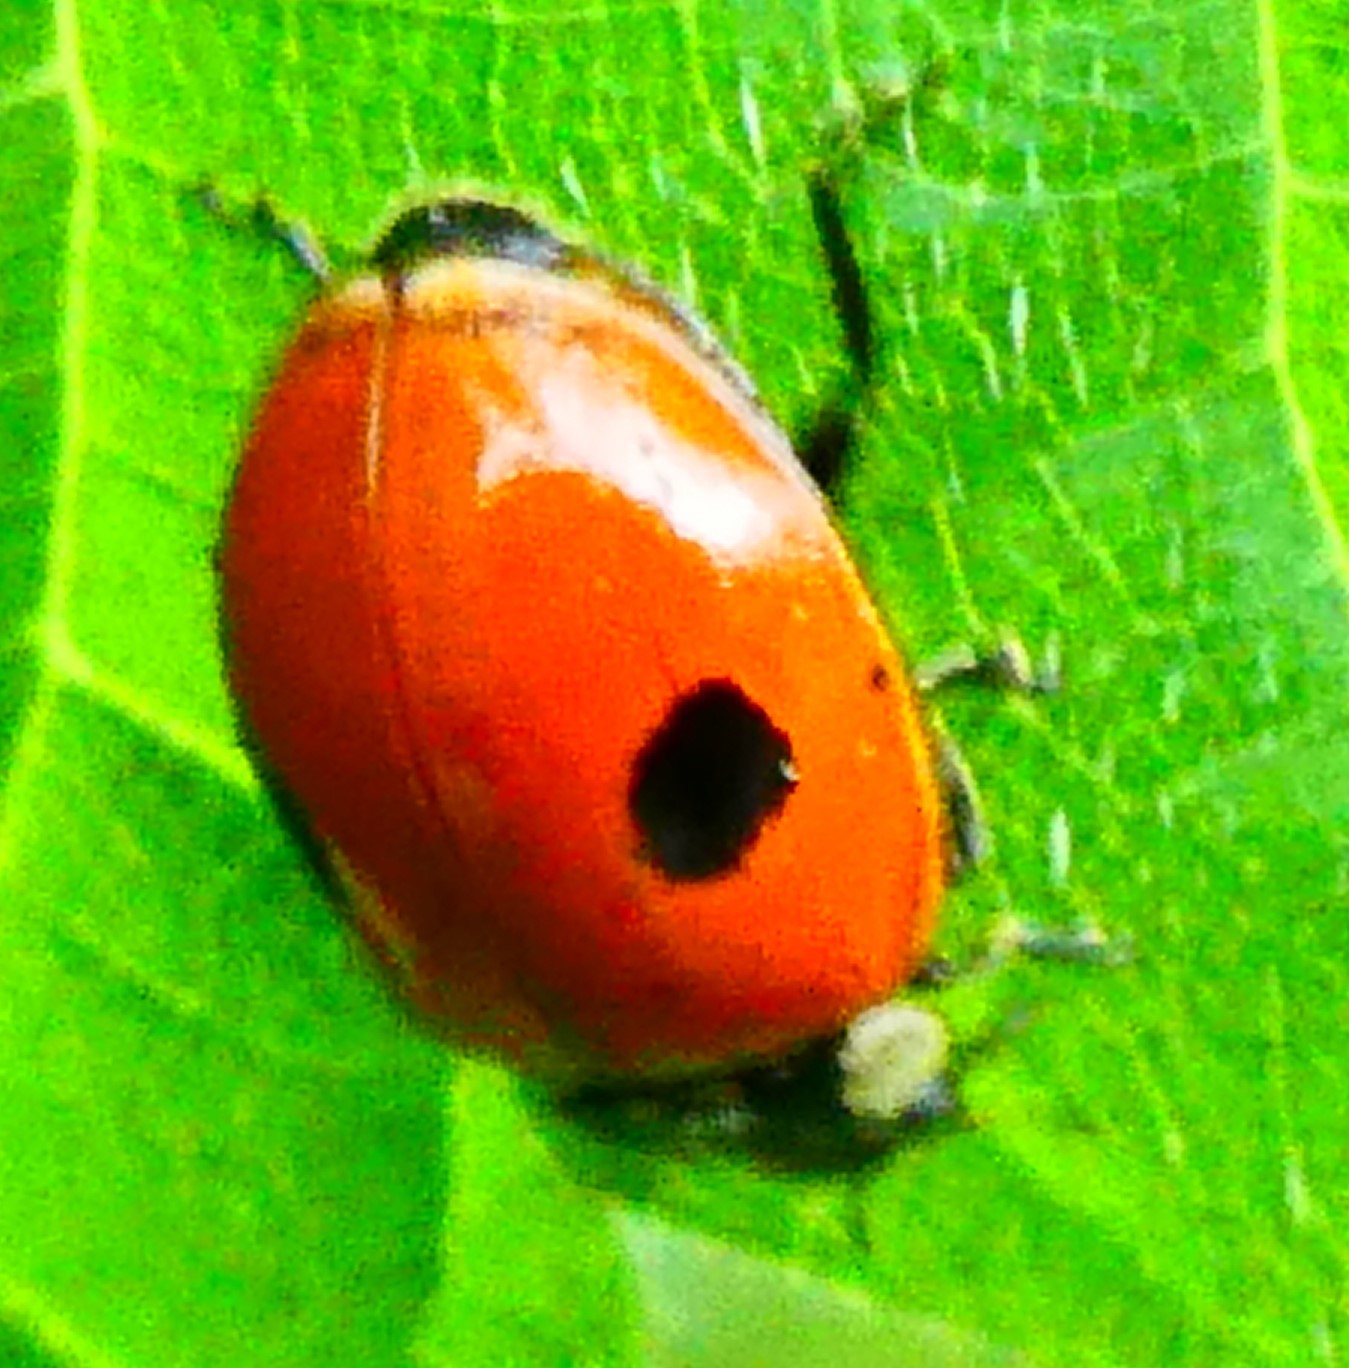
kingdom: Animalia
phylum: Arthropoda
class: Insecta
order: Coleoptera
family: Coccinellidae
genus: Adalia
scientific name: Adalia bipunctata
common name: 2-spot ladybird
